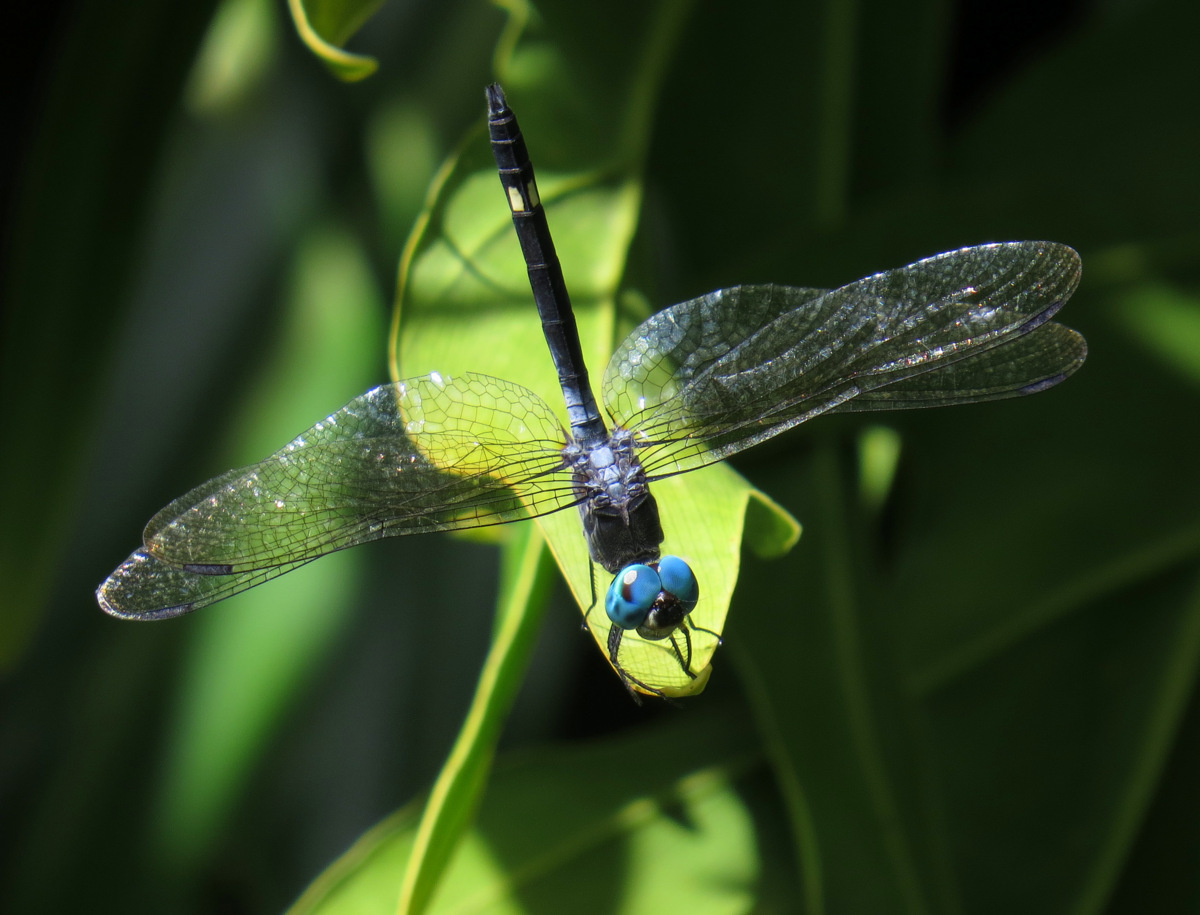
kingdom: Animalia
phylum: Arthropoda
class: Insecta
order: Odonata
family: Libellulidae
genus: Micrathyria
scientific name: Micrathyria atra
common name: Black dasher
